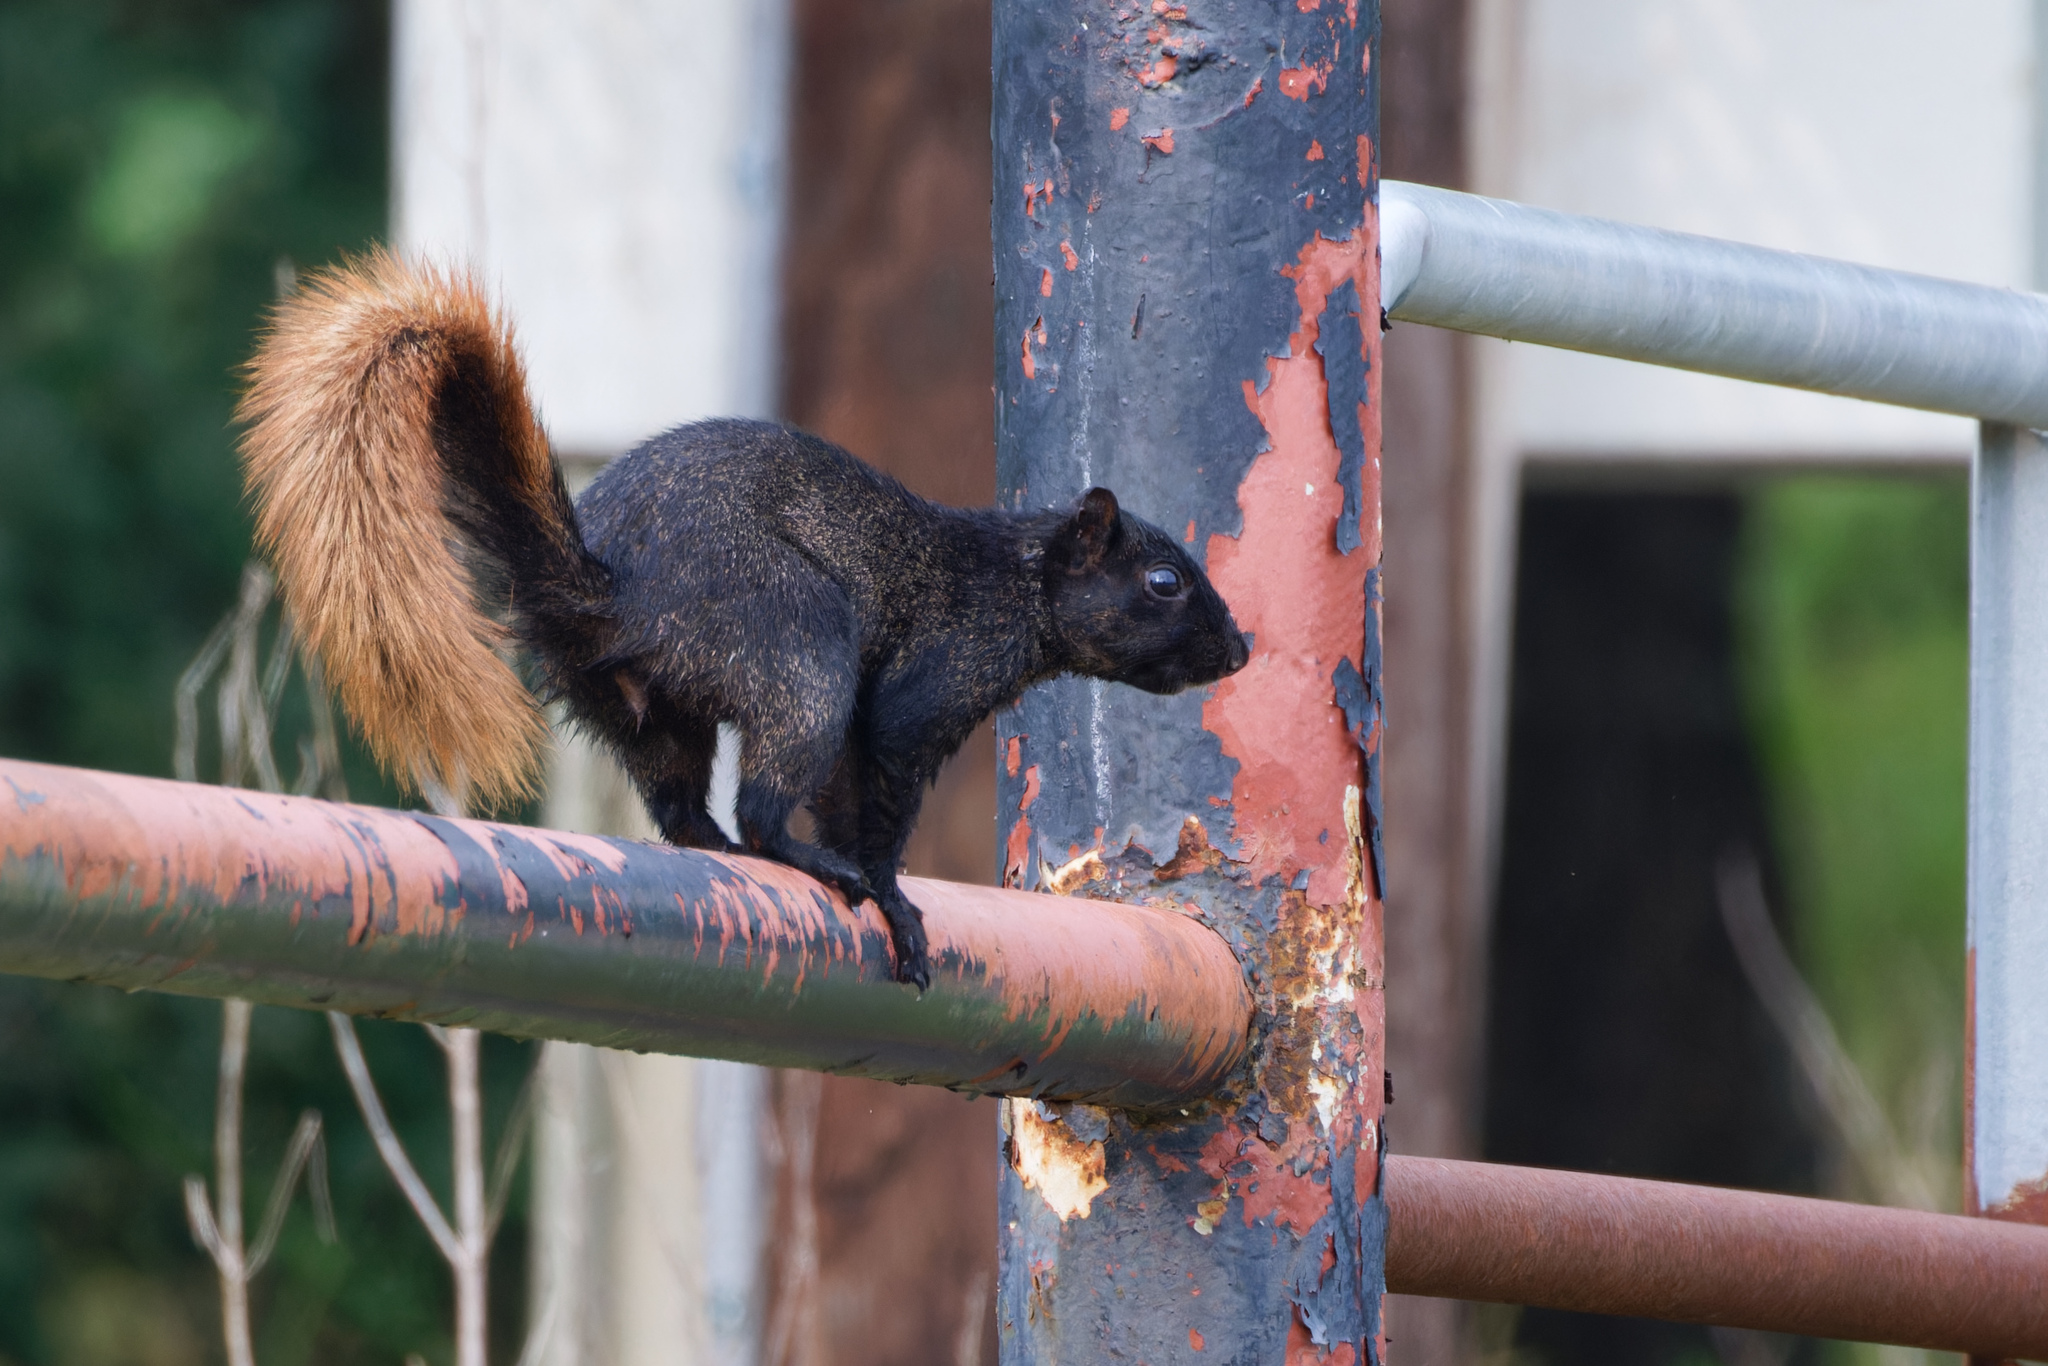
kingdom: Animalia
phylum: Chordata
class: Mammalia
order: Rodentia
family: Sciuridae
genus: Sciurus
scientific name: Sciurus niger
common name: Fox squirrel
